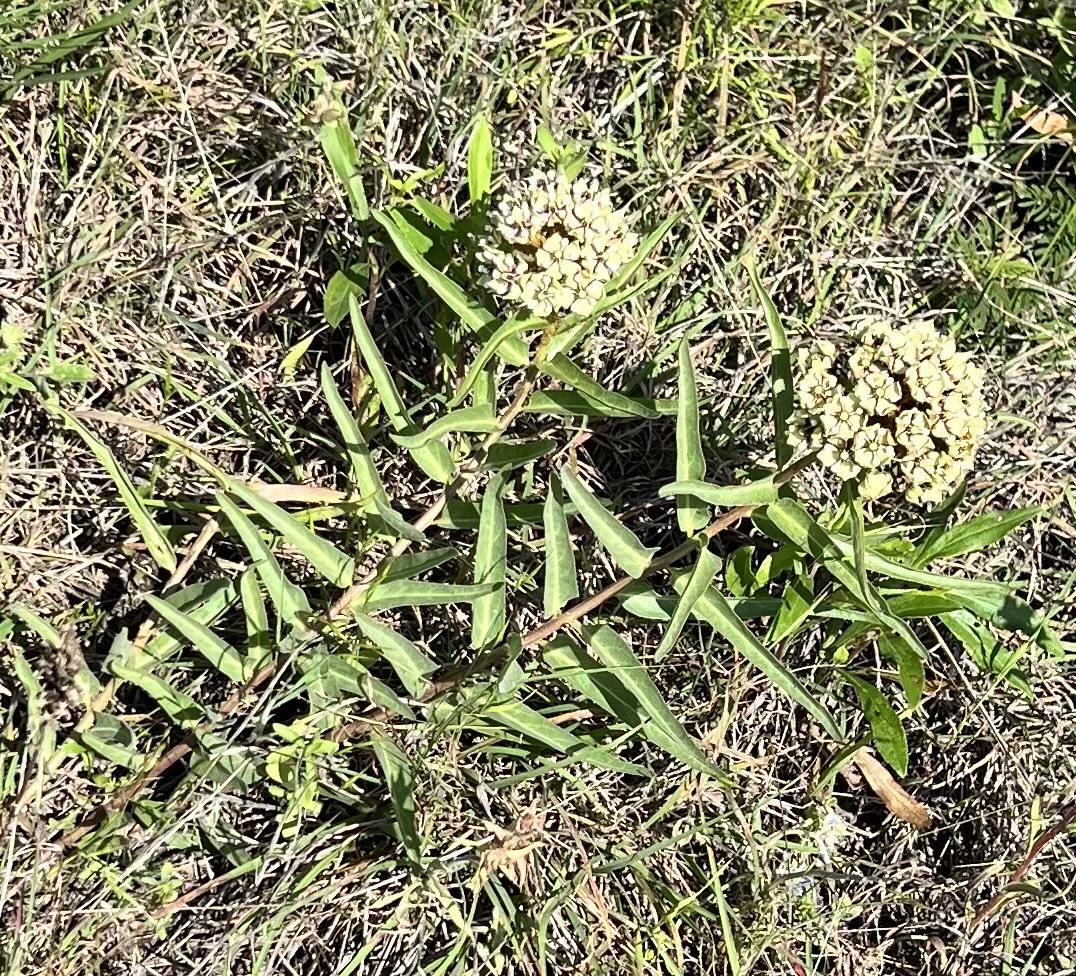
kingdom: Plantae
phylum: Tracheophyta
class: Magnoliopsida
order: Gentianales
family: Apocynaceae
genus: Asclepias
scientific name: Asclepias asperula
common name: Antelope horns
